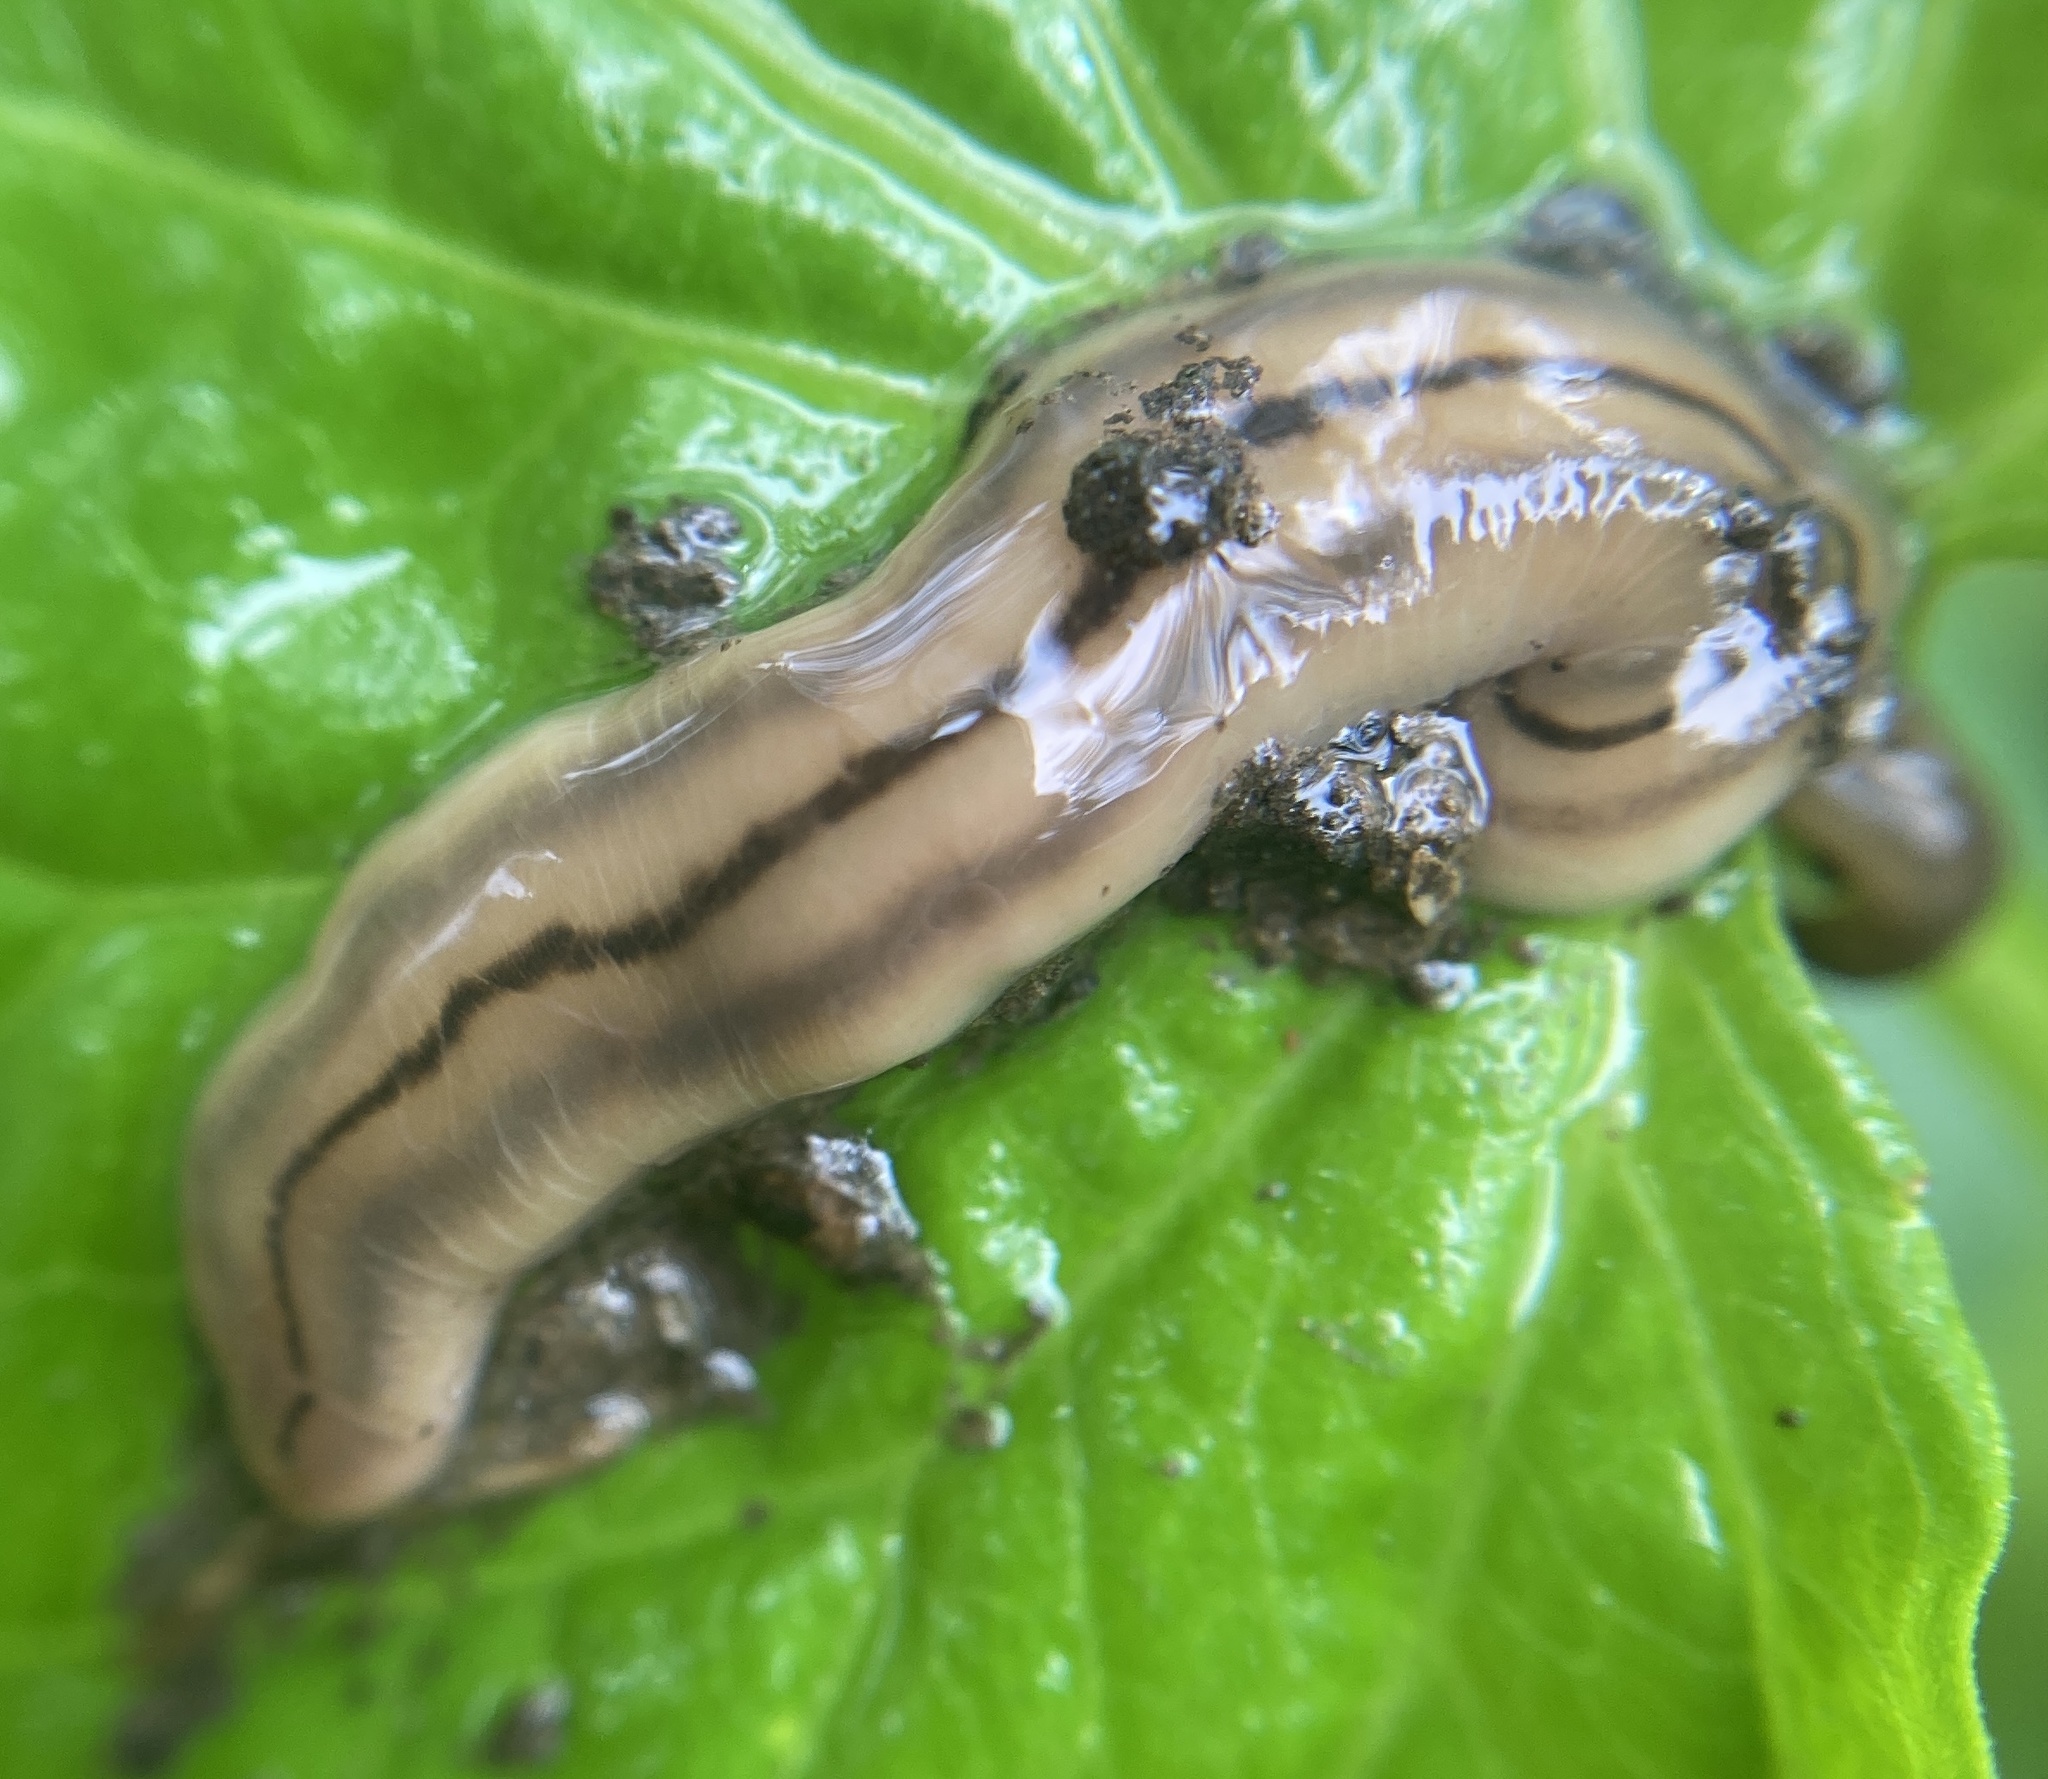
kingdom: Animalia
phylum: Platyhelminthes
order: Tricladida
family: Geoplanidae
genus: Bipalium
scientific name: Bipalium pennsylvanicum
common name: Three-lined land planarian
